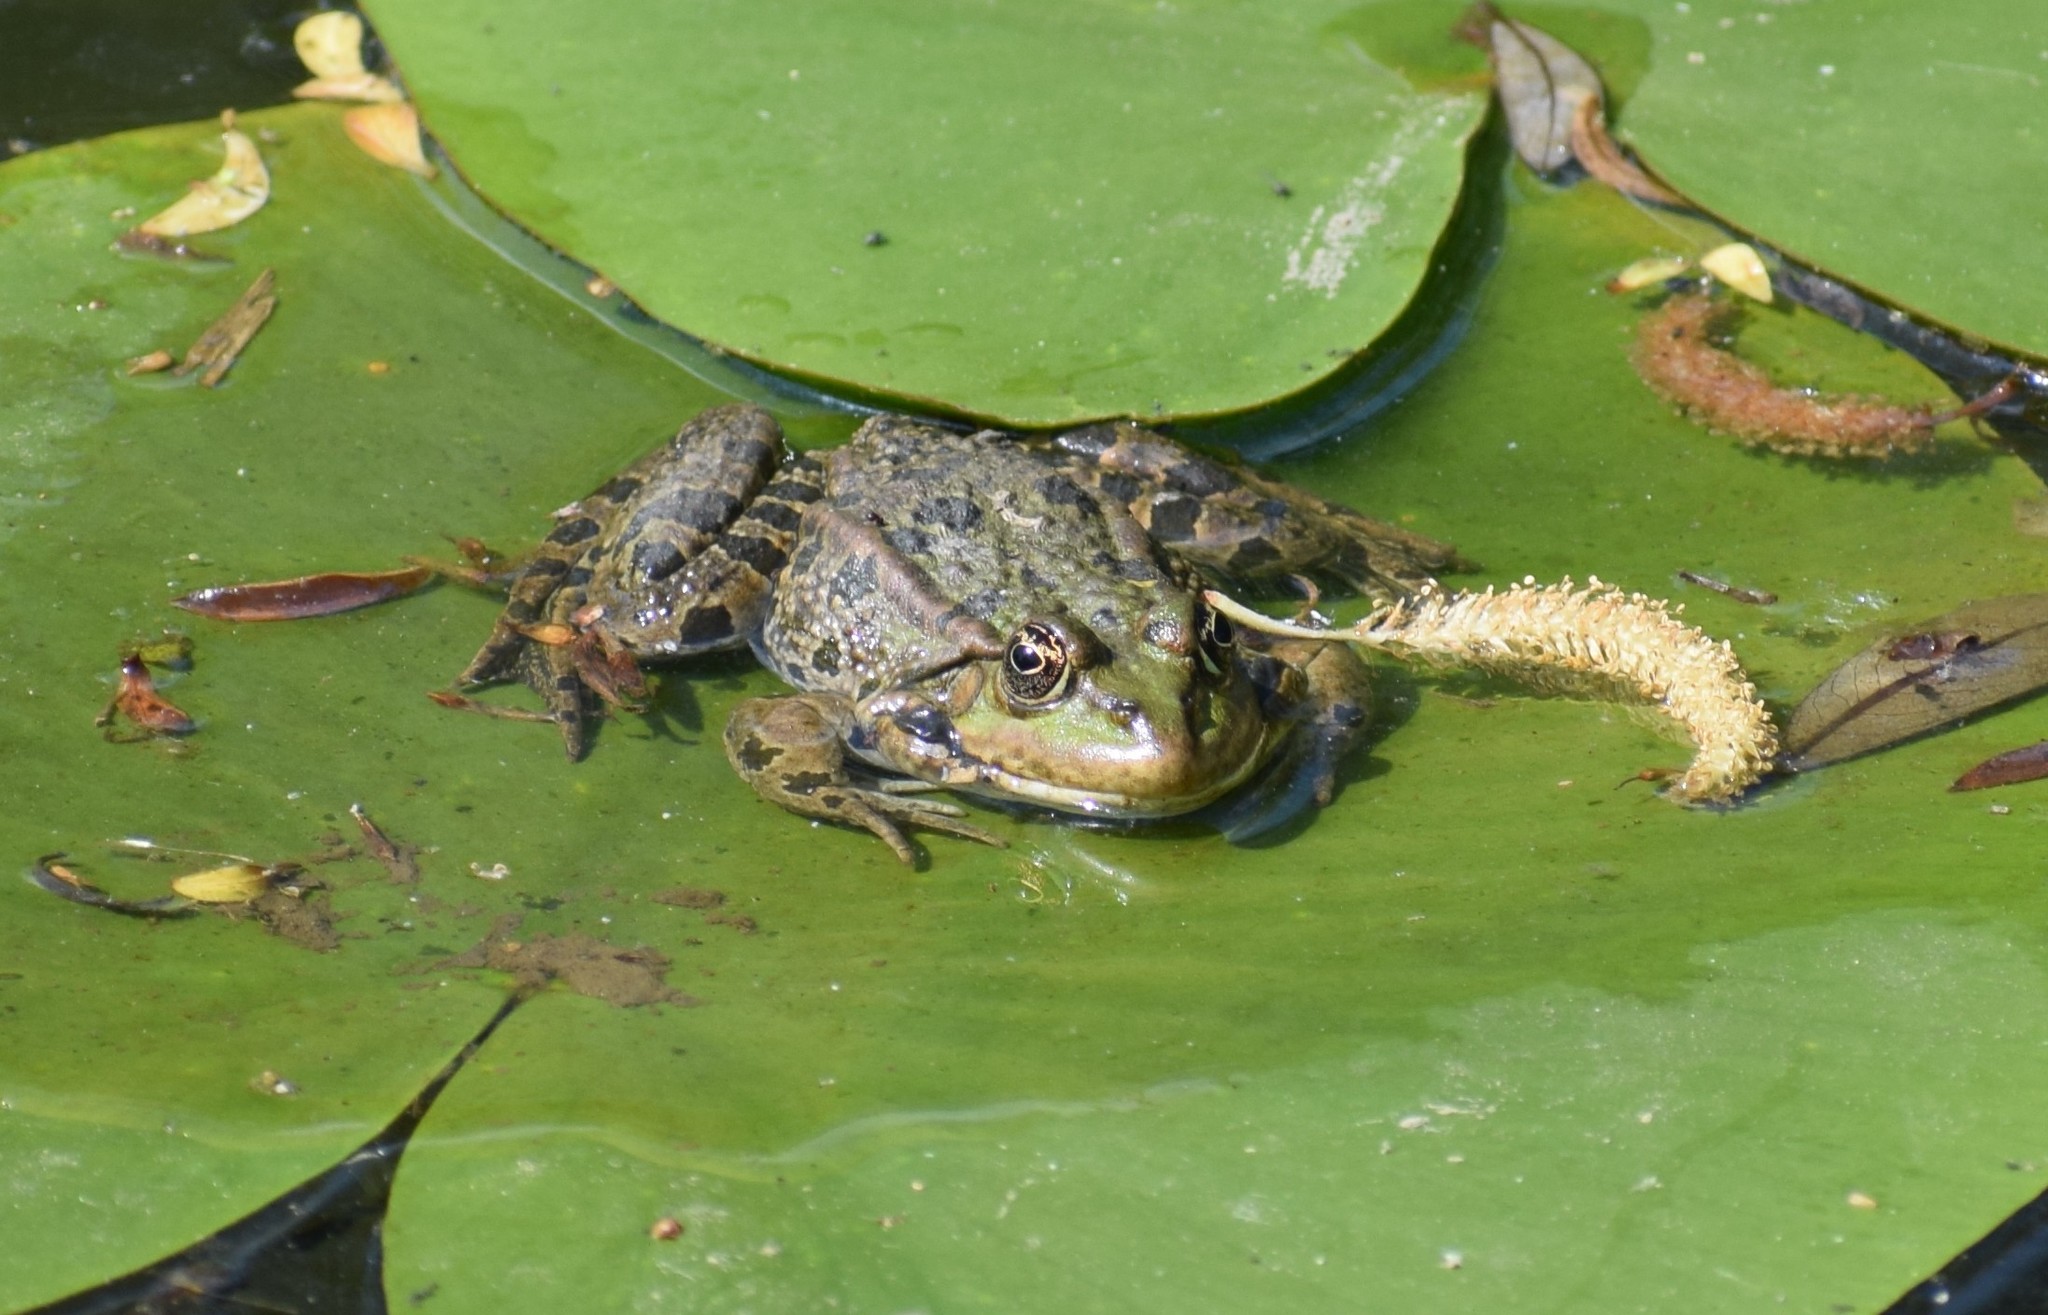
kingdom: Animalia
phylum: Chordata
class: Amphibia
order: Anura
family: Ranidae
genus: Pelophylax
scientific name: Pelophylax
